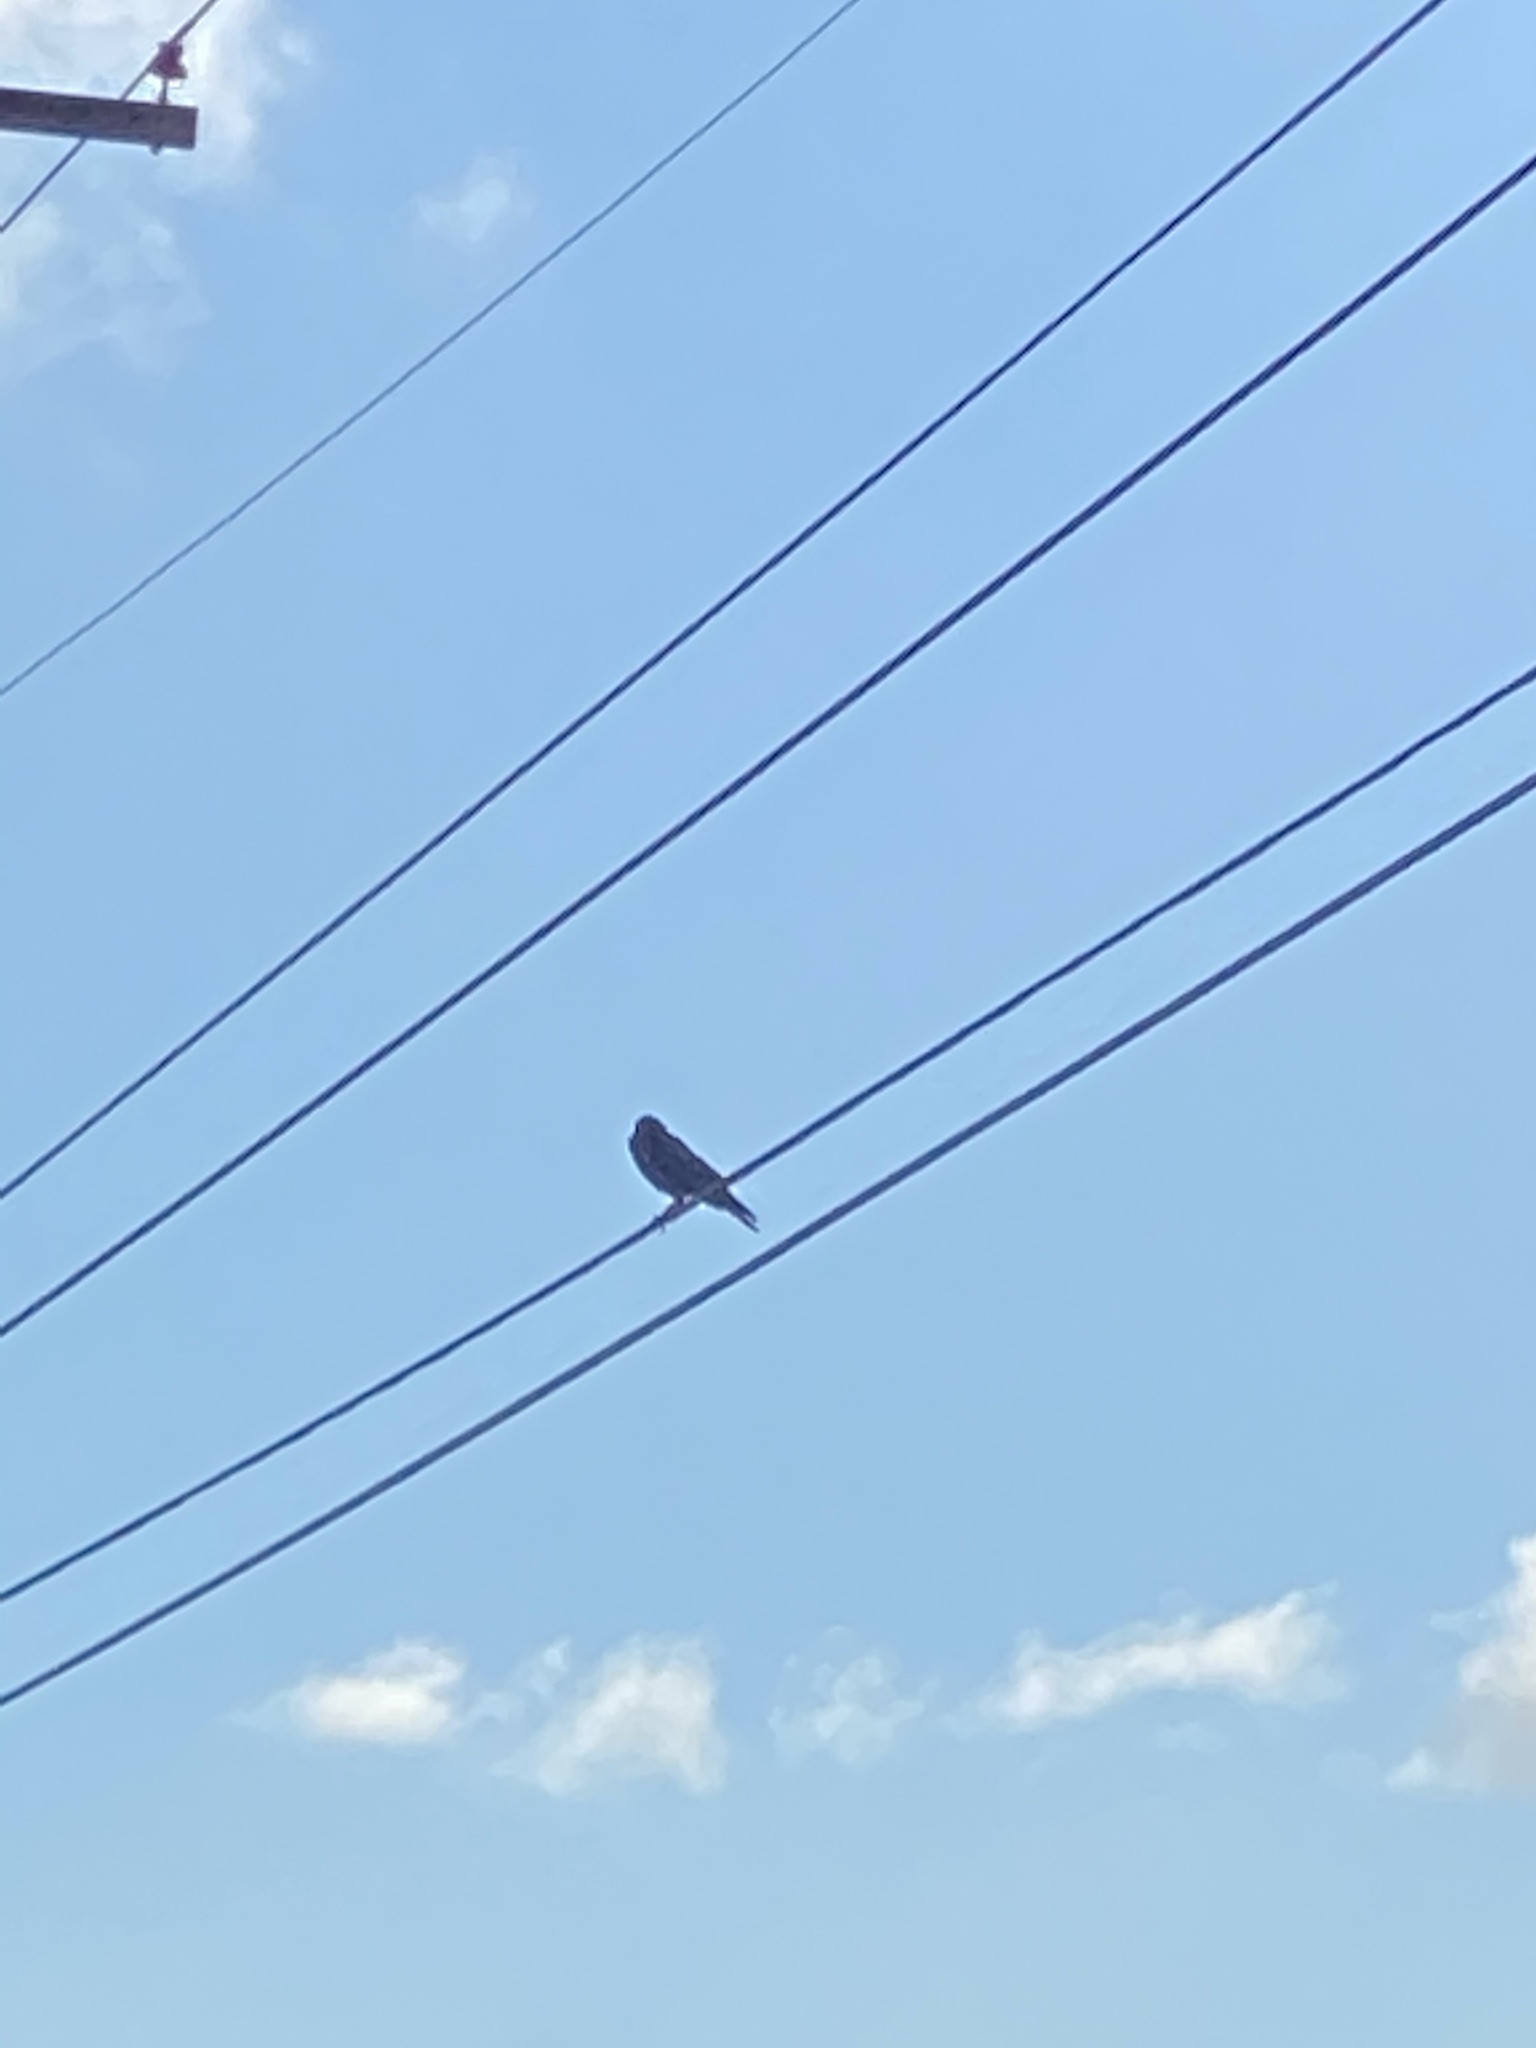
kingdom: Animalia
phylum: Chordata
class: Aves
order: Passeriformes
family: Corvidae
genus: Corvus
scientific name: Corvus brachyrhynchos
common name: American crow
